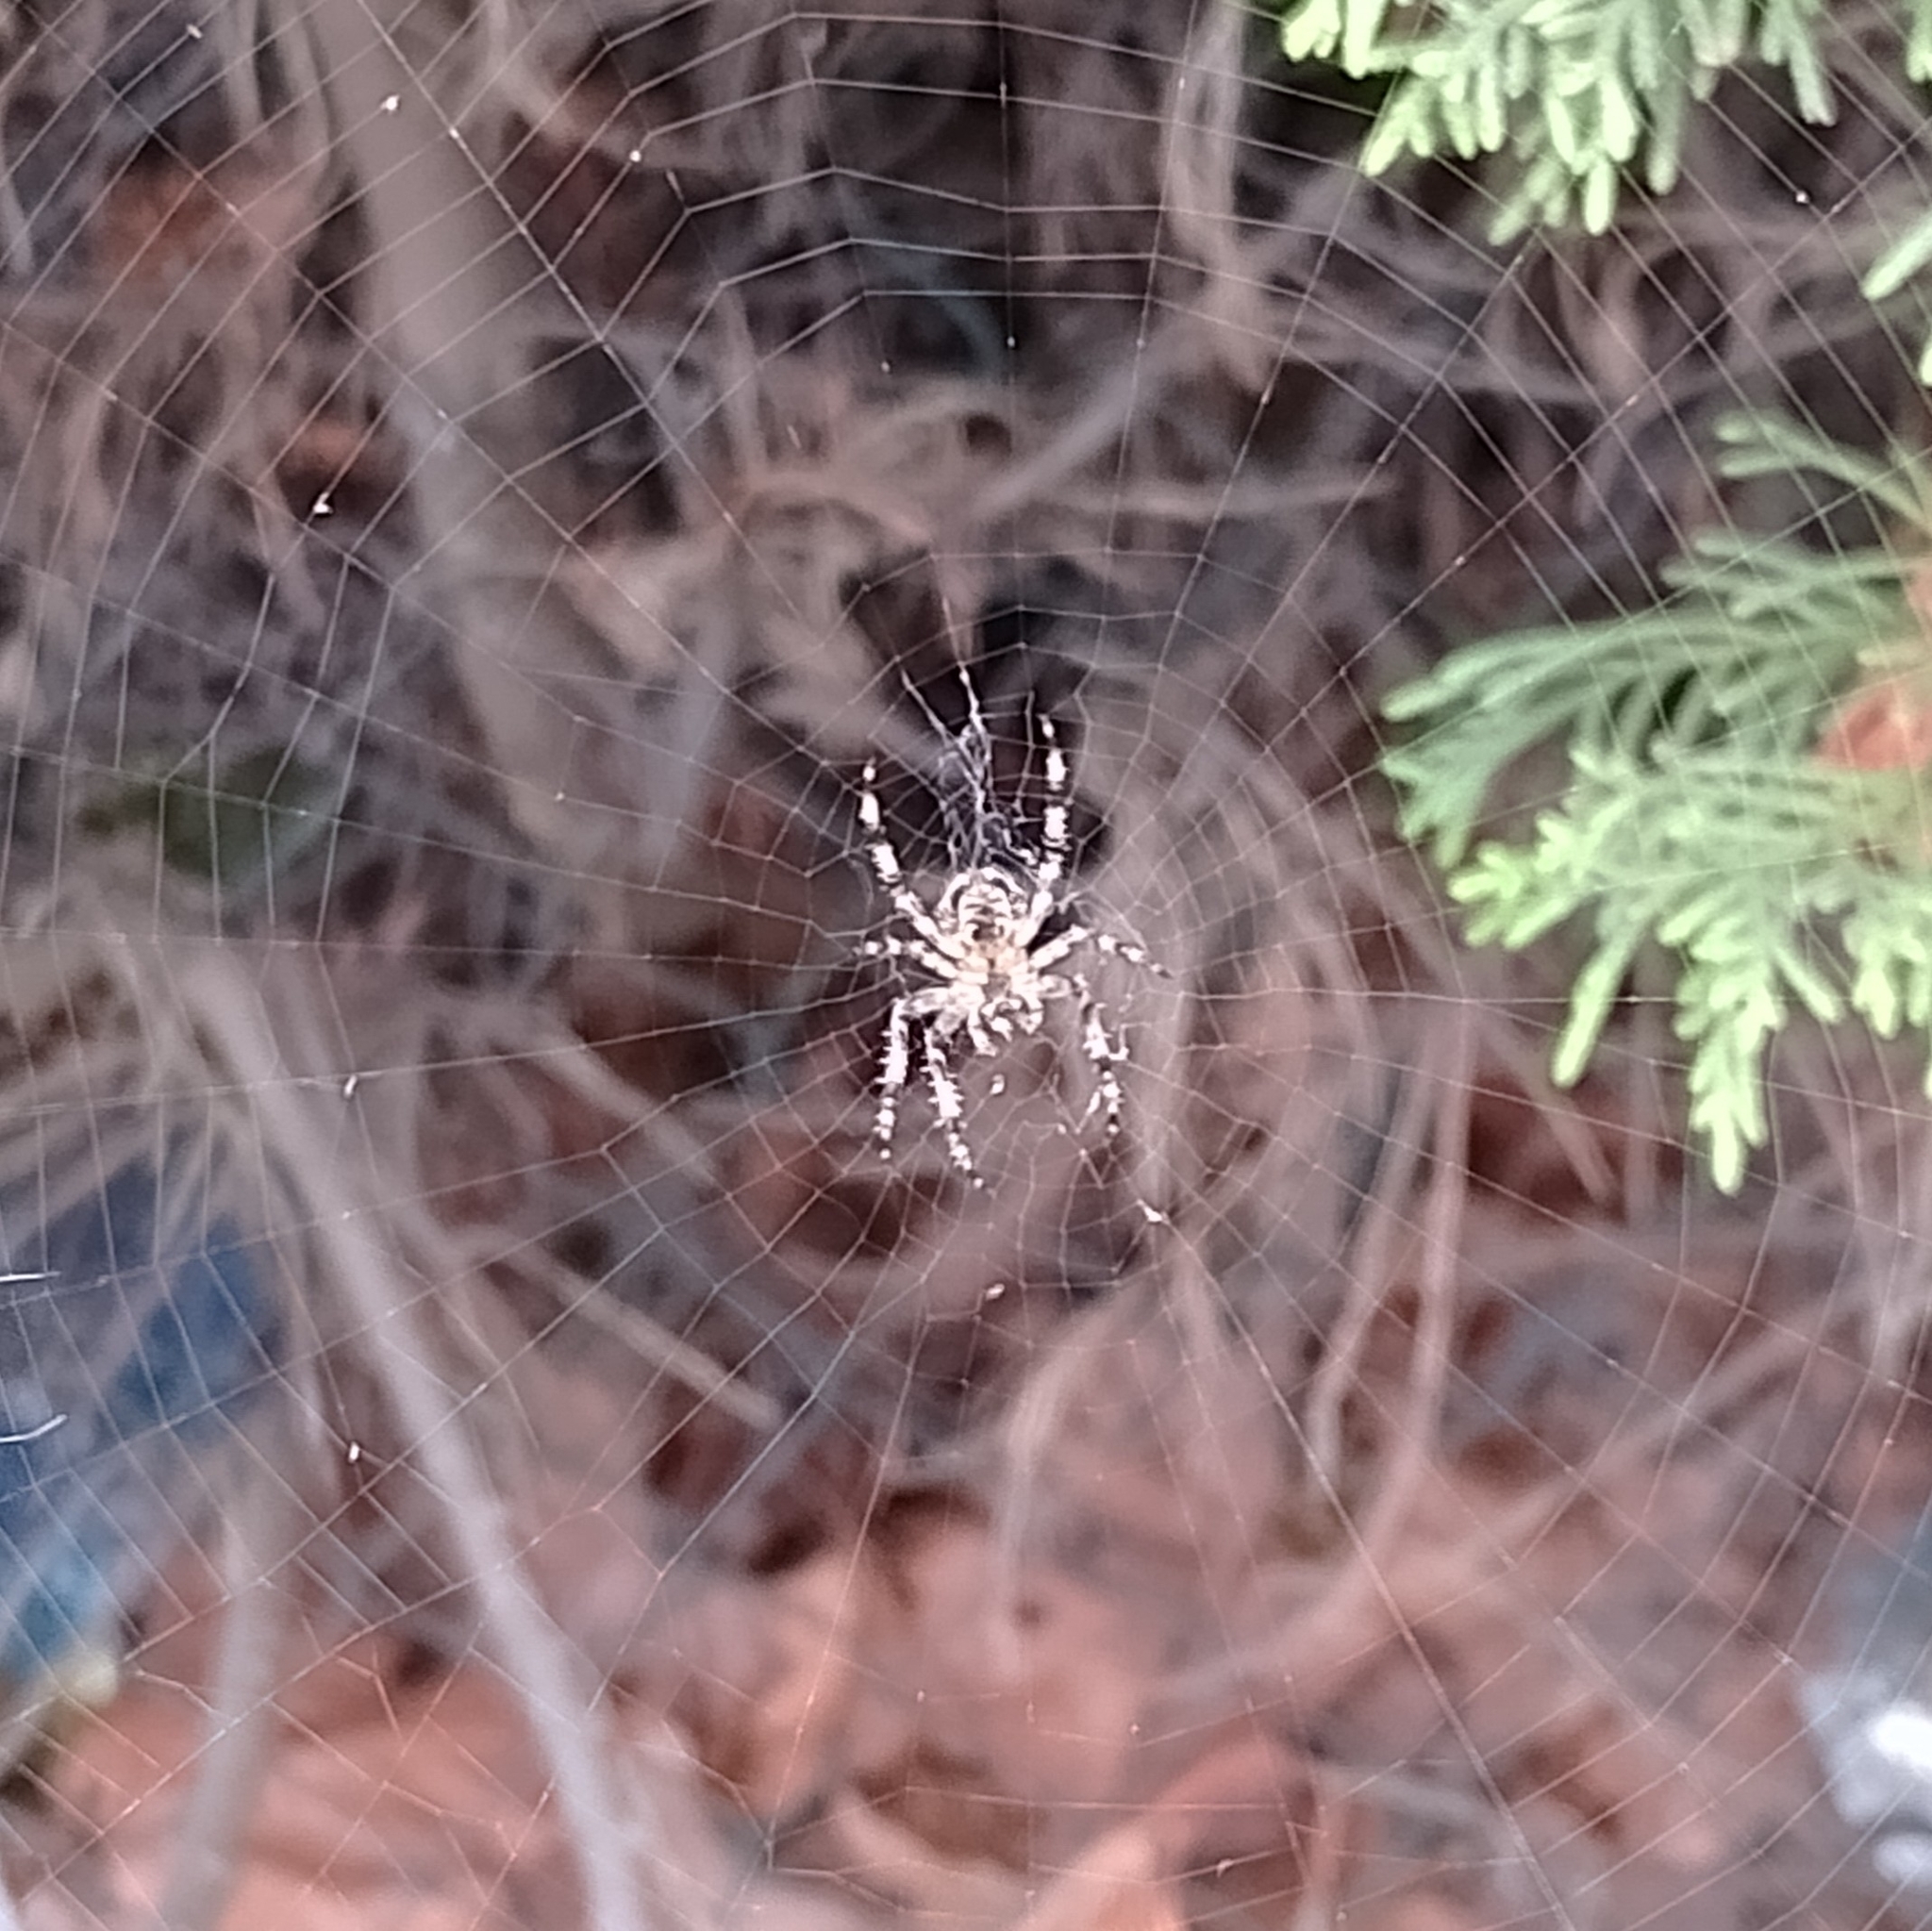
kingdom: Animalia
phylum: Arthropoda
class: Arachnida
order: Araneae
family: Araneidae
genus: Araneus
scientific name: Araneus diadematus
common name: Cross orbweaver
